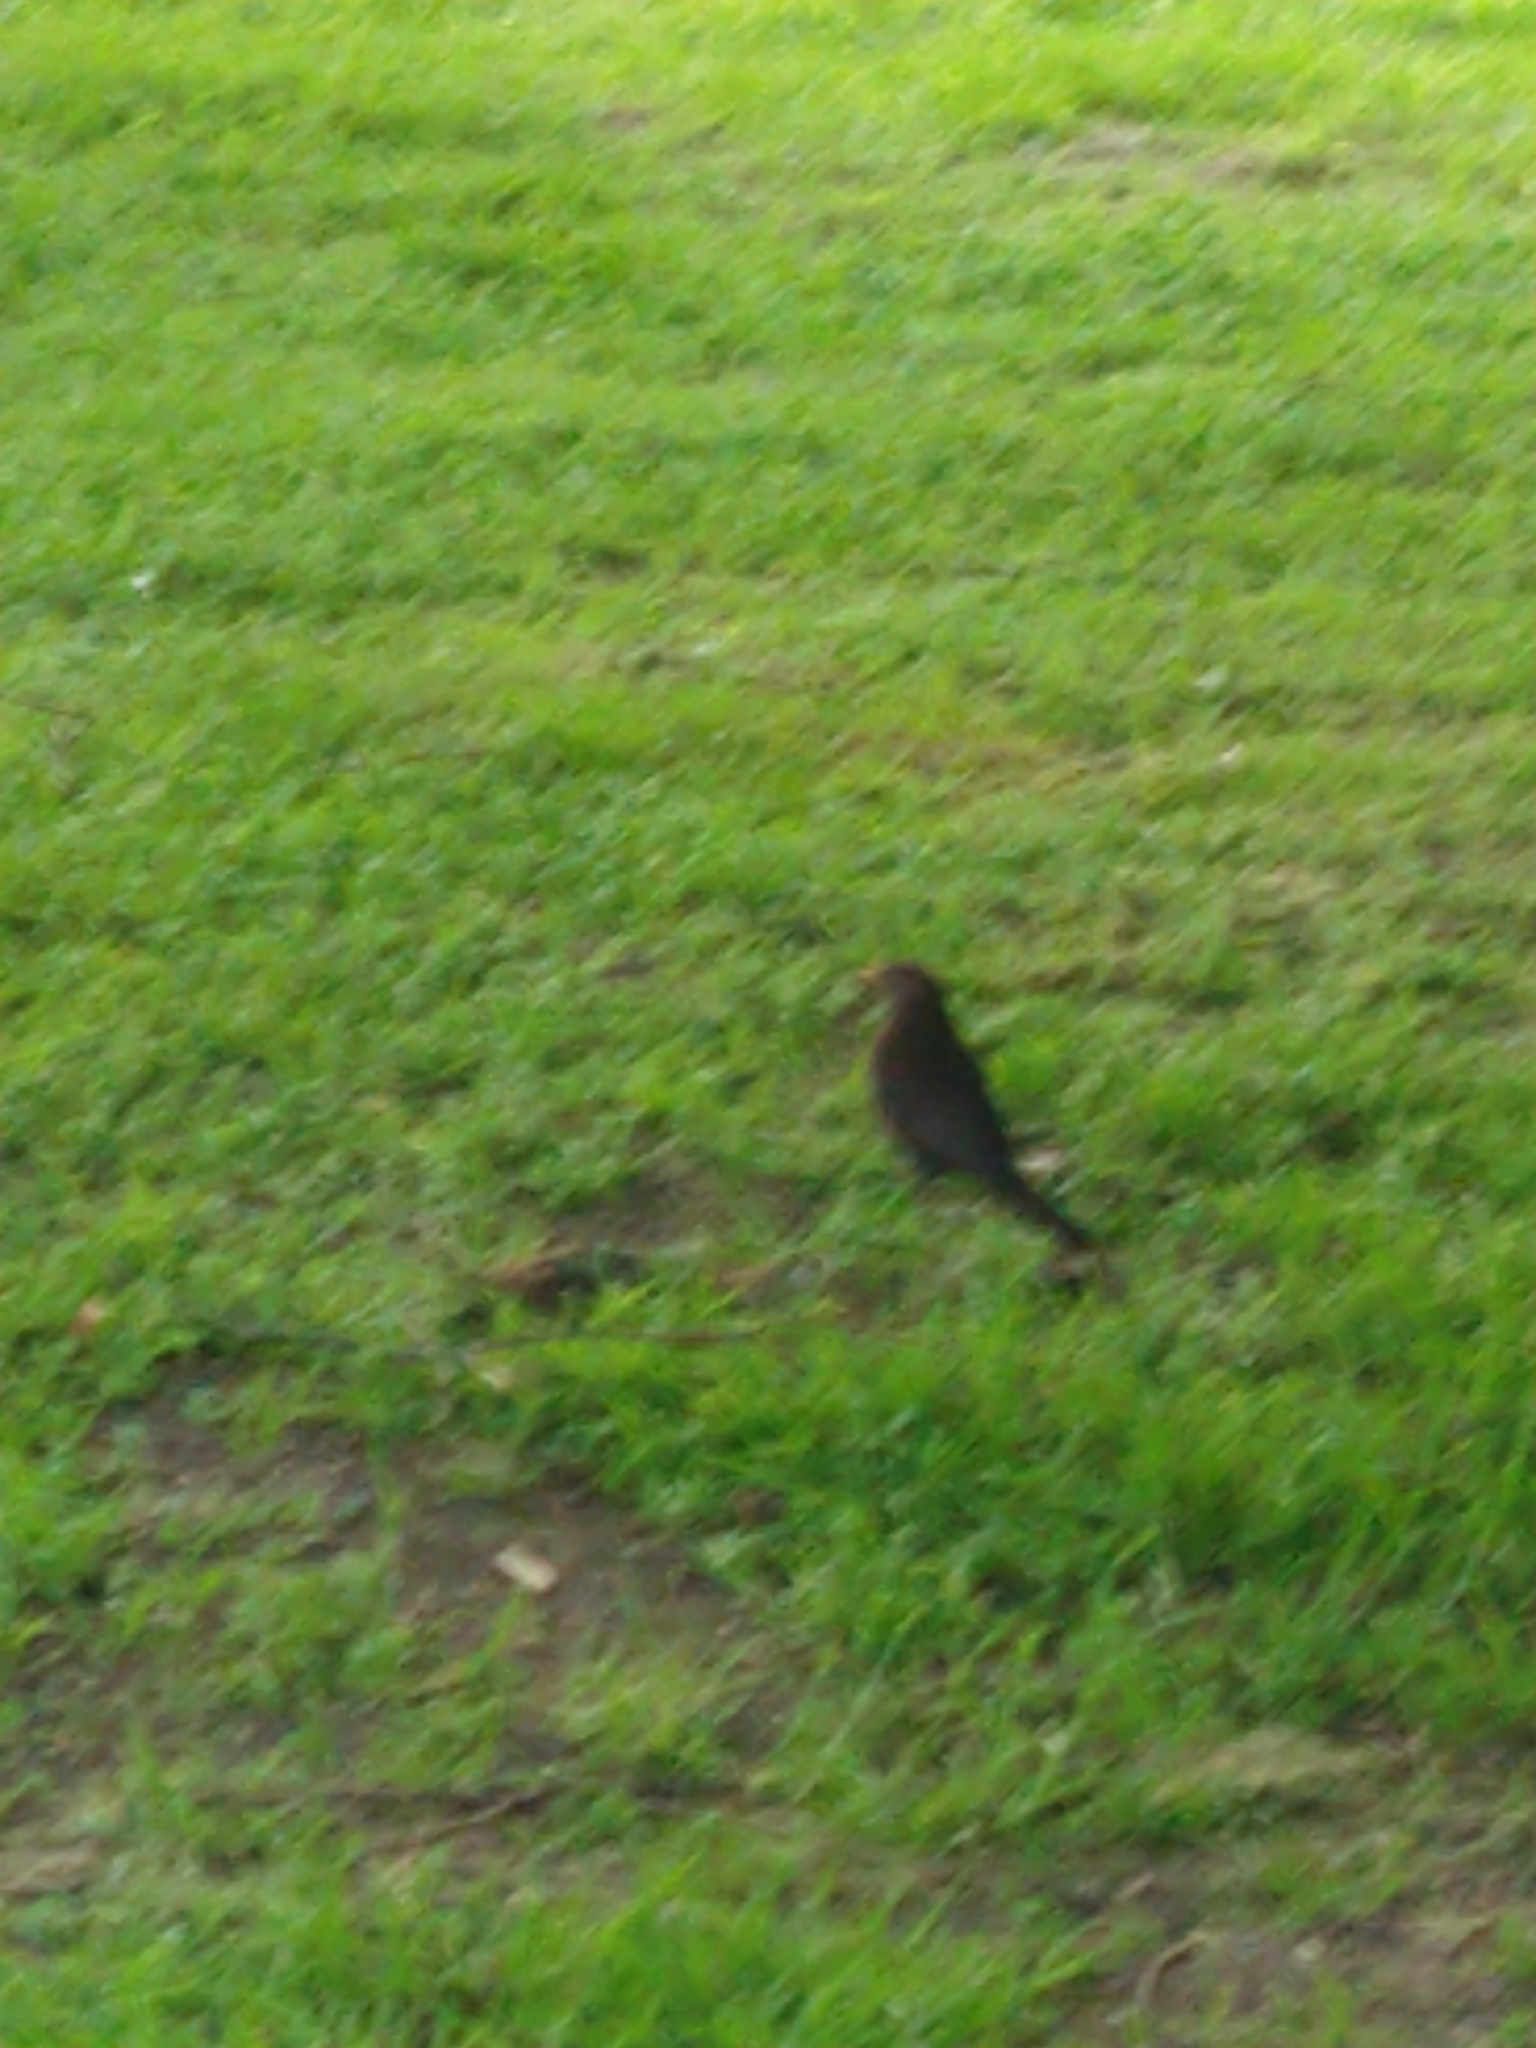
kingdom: Animalia
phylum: Chordata
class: Aves
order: Passeriformes
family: Turdidae
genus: Turdus
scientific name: Turdus merula
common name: Common blackbird
